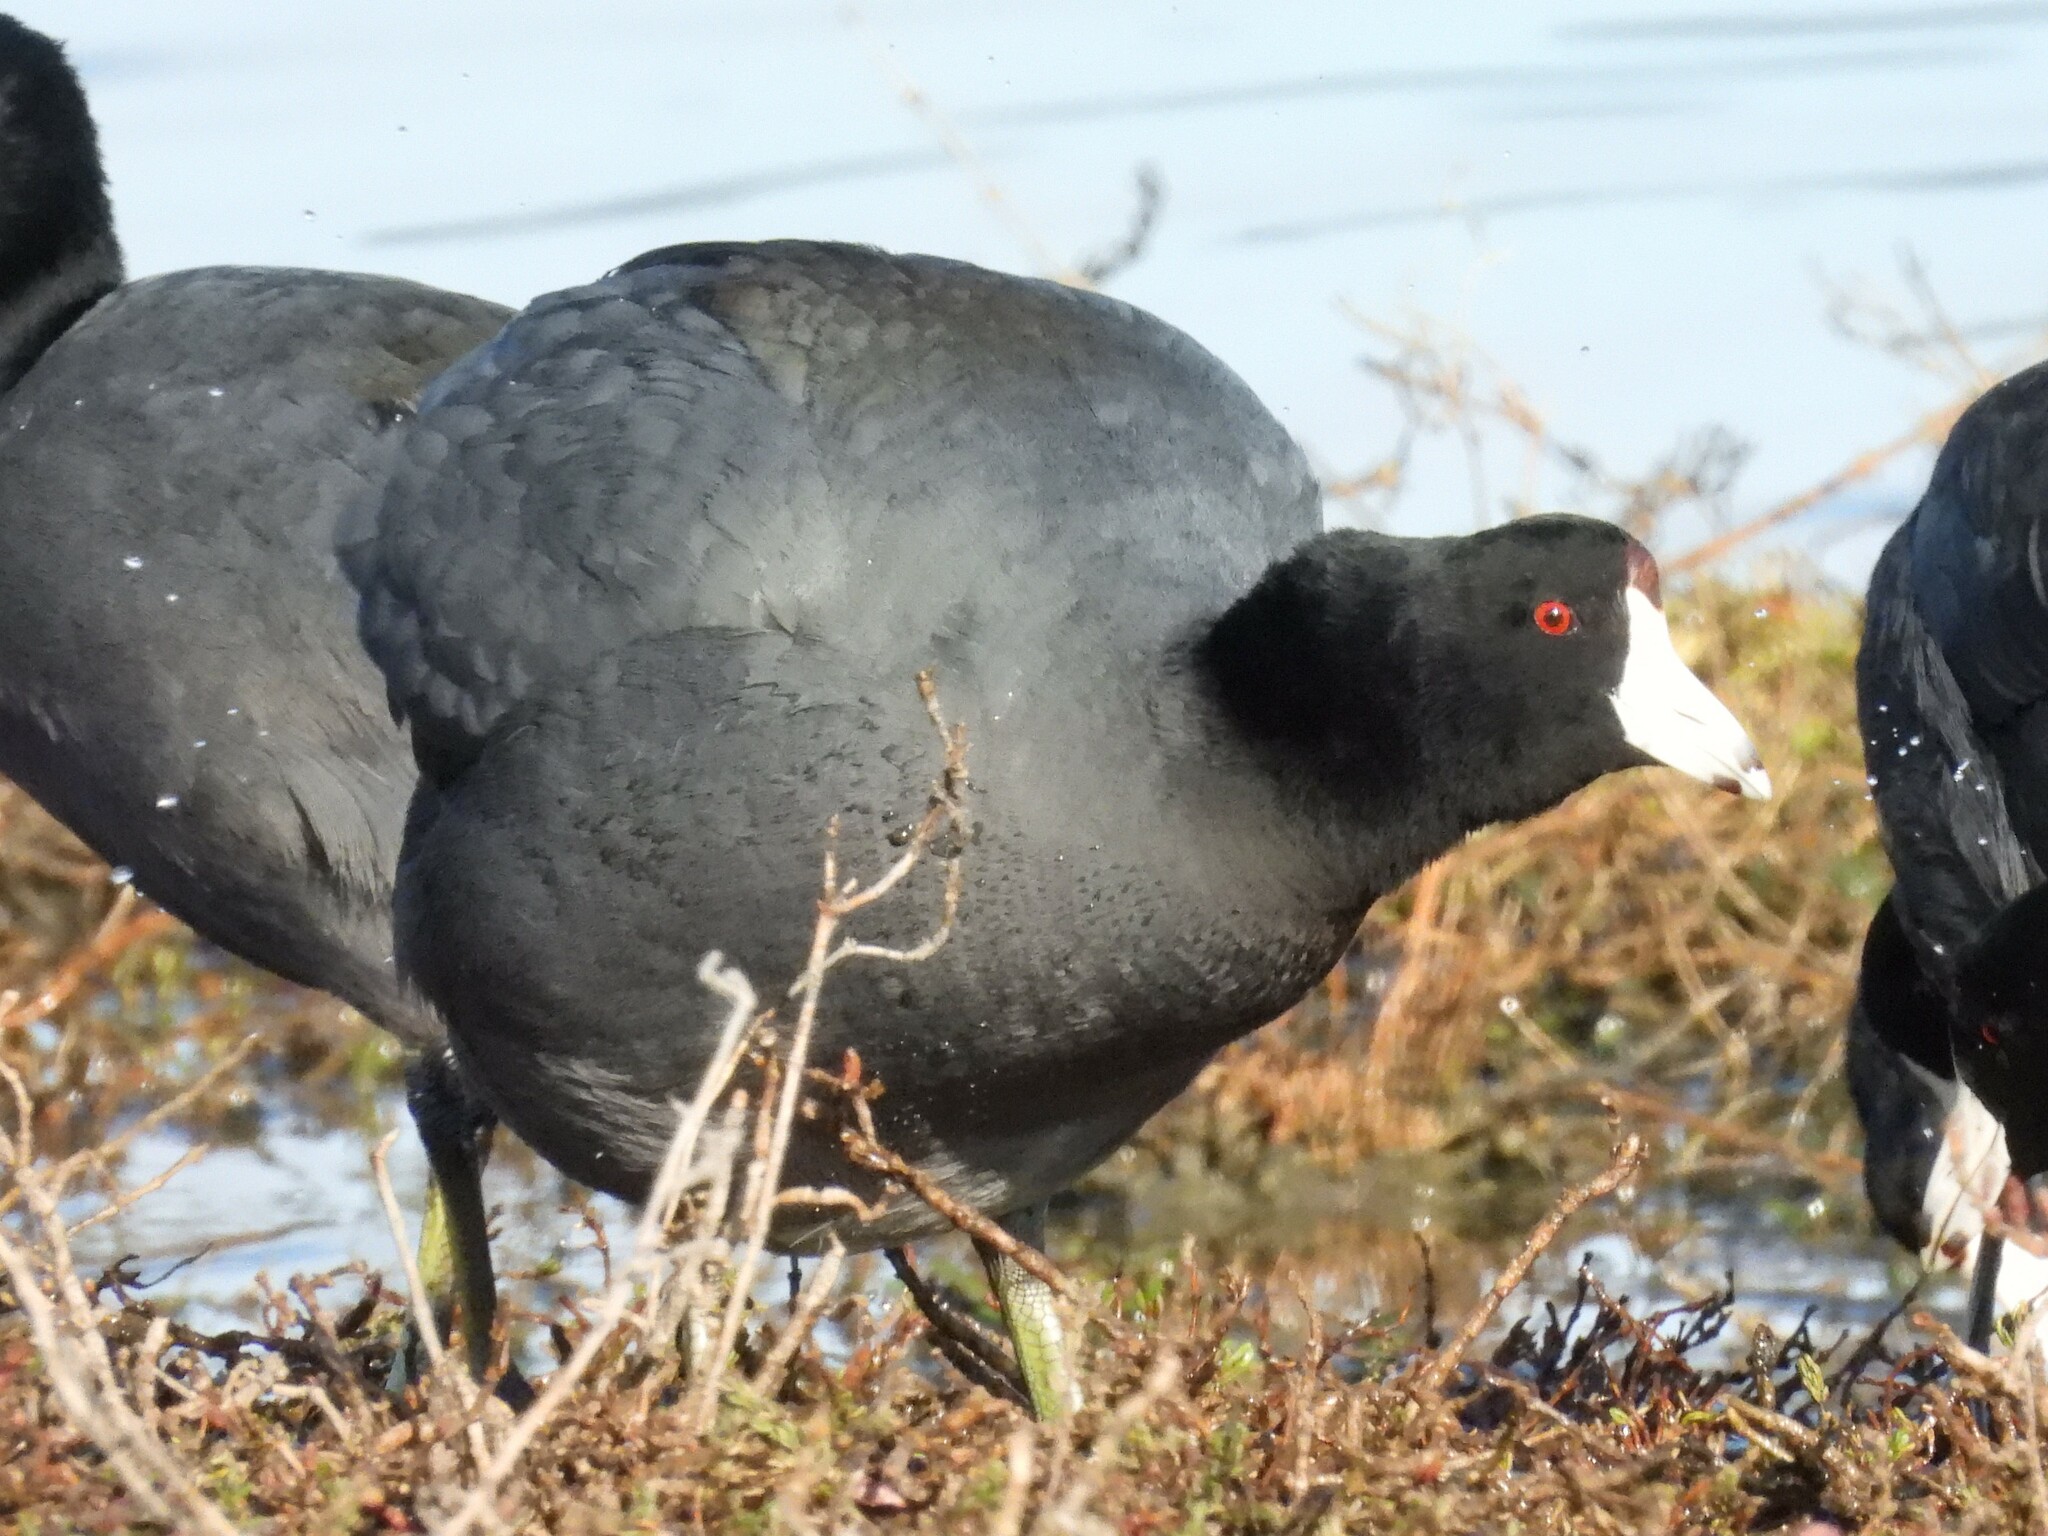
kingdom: Animalia
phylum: Chordata
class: Aves
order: Gruiformes
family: Rallidae
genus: Fulica
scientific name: Fulica americana
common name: American coot
